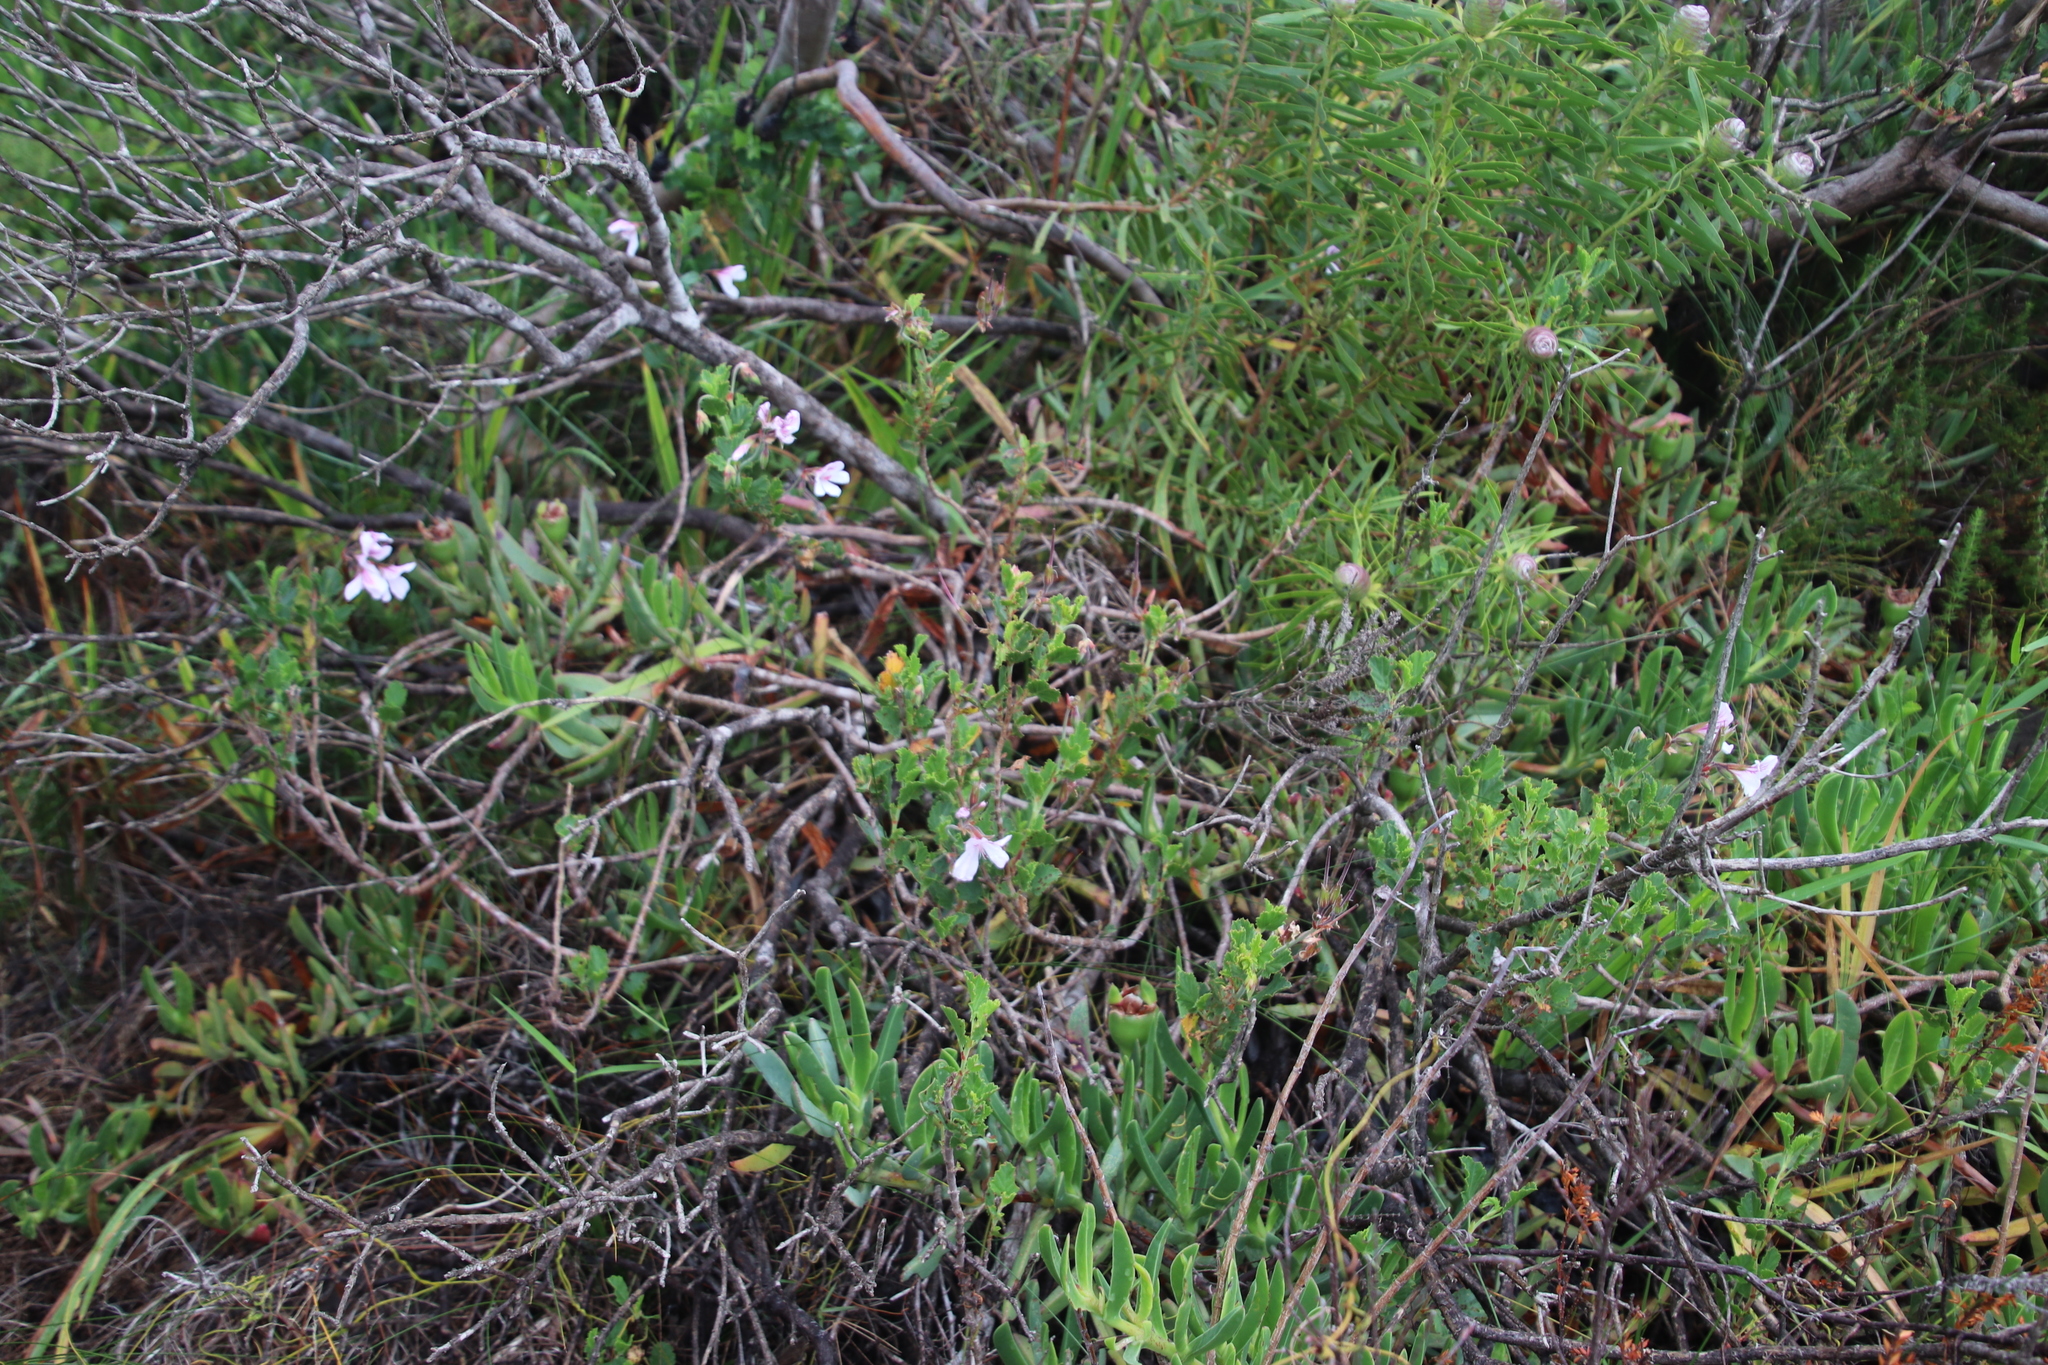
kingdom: Plantae
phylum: Tracheophyta
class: Magnoliopsida
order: Geraniales
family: Geraniaceae
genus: Pelargonium
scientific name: Pelargonium betulinum
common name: Birch-leaf pelargonium
